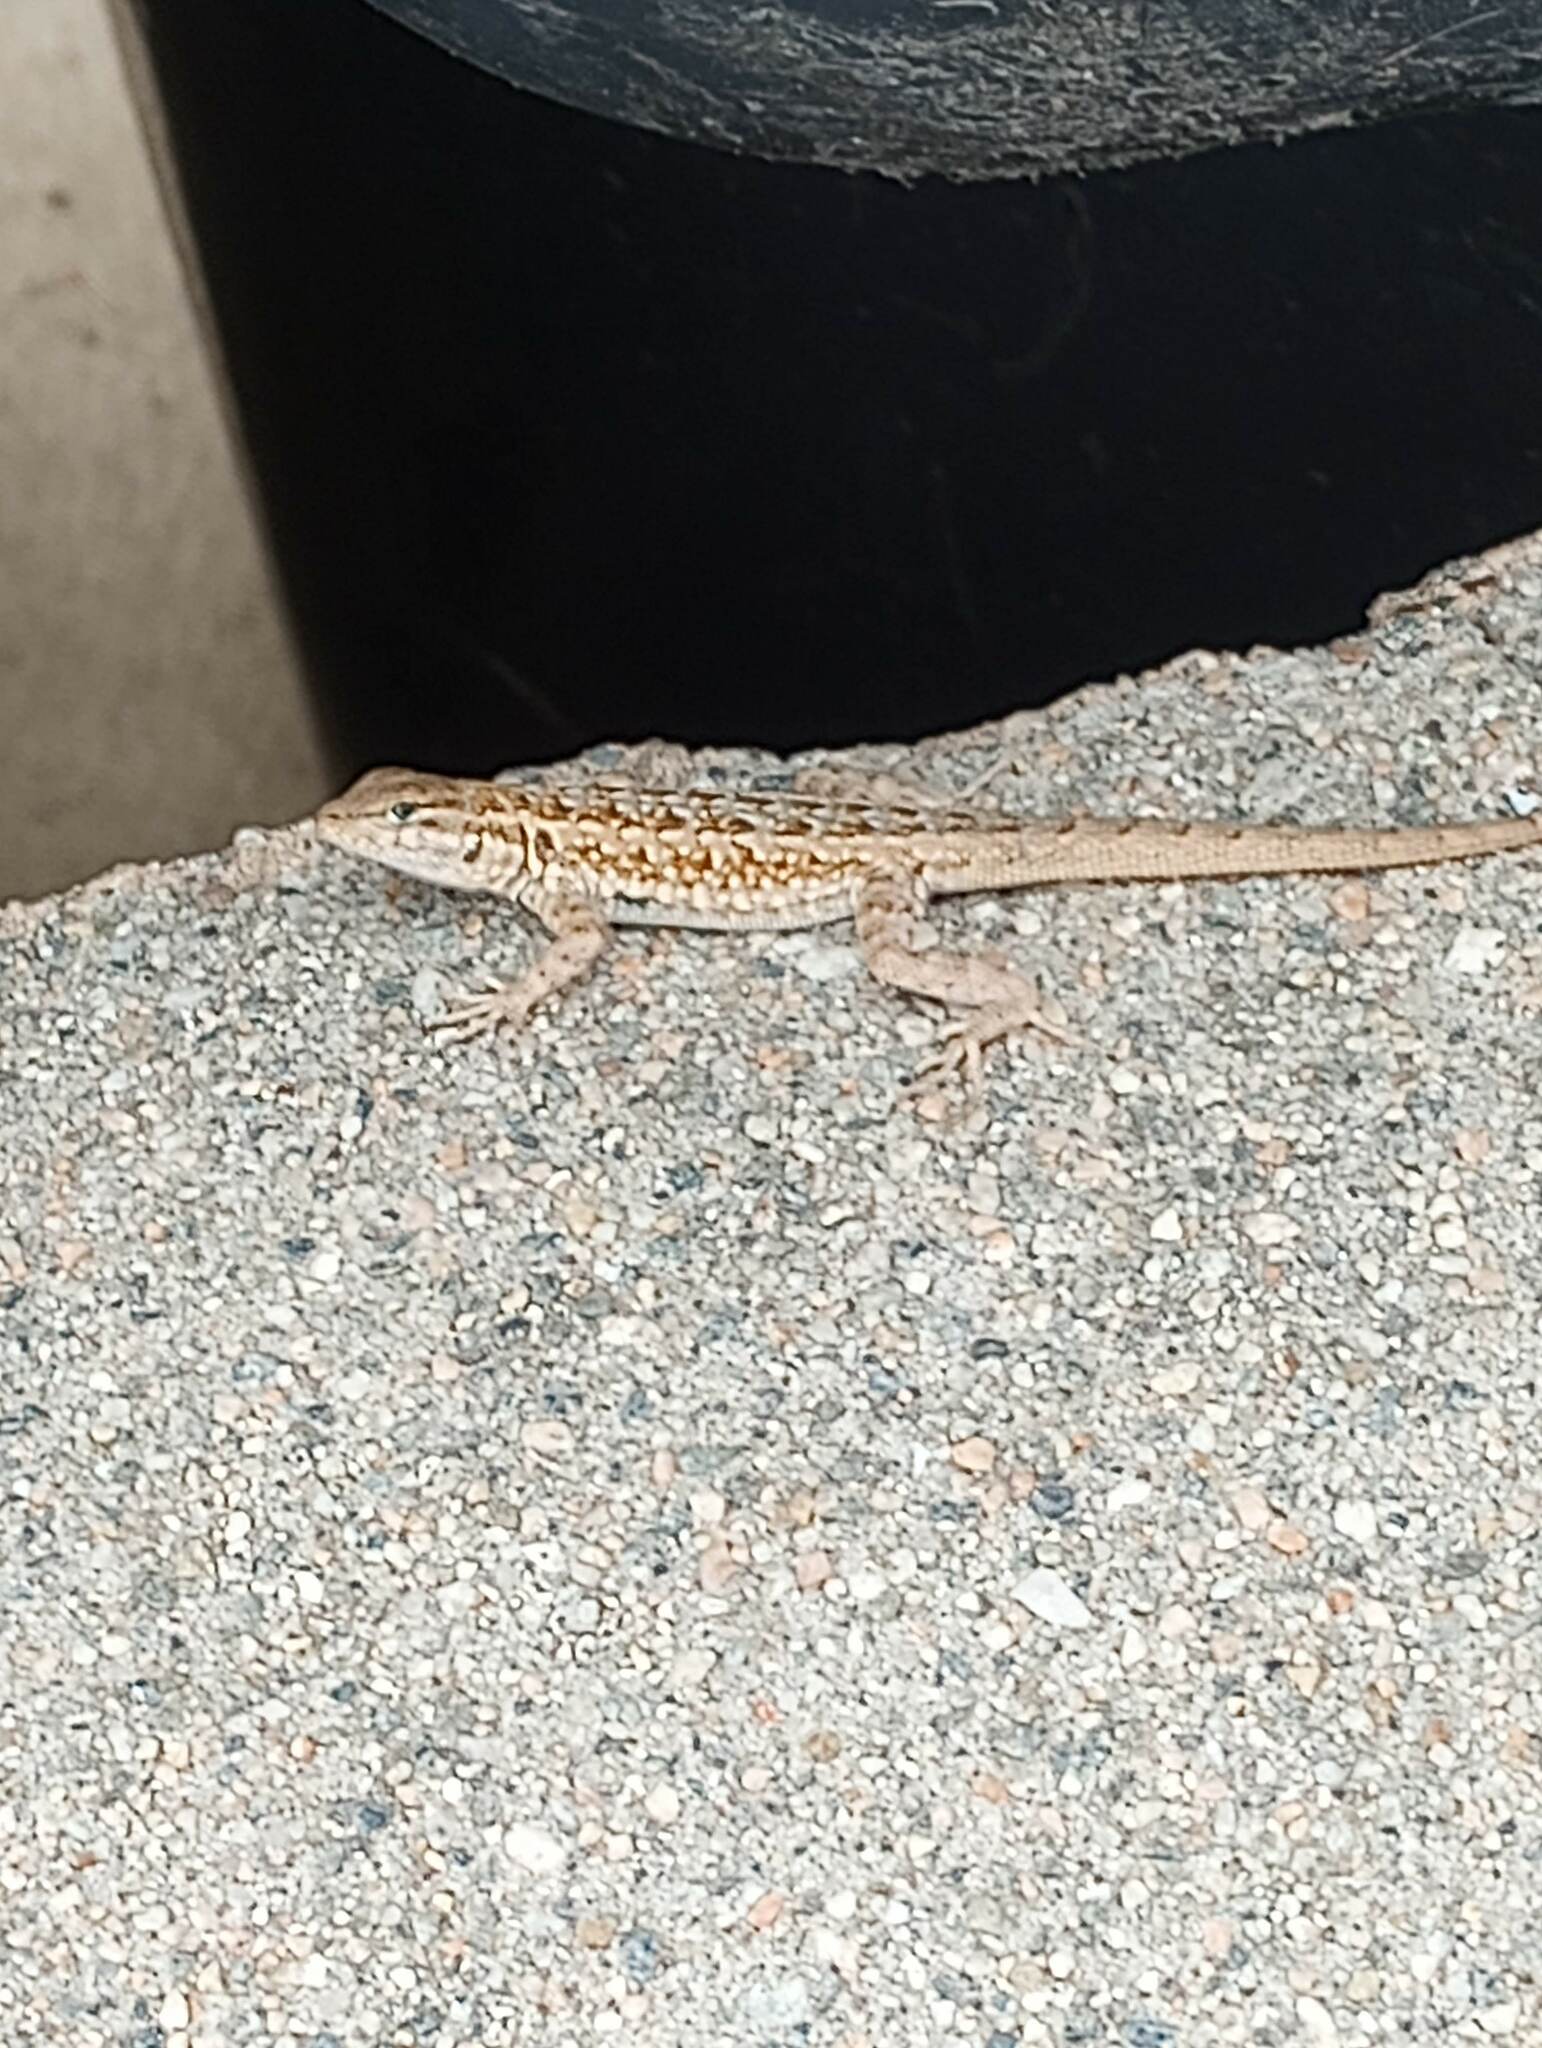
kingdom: Animalia
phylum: Chordata
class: Squamata
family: Phrynosomatidae
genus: Uta
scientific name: Uta stansburiana
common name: Side-blotched lizard
